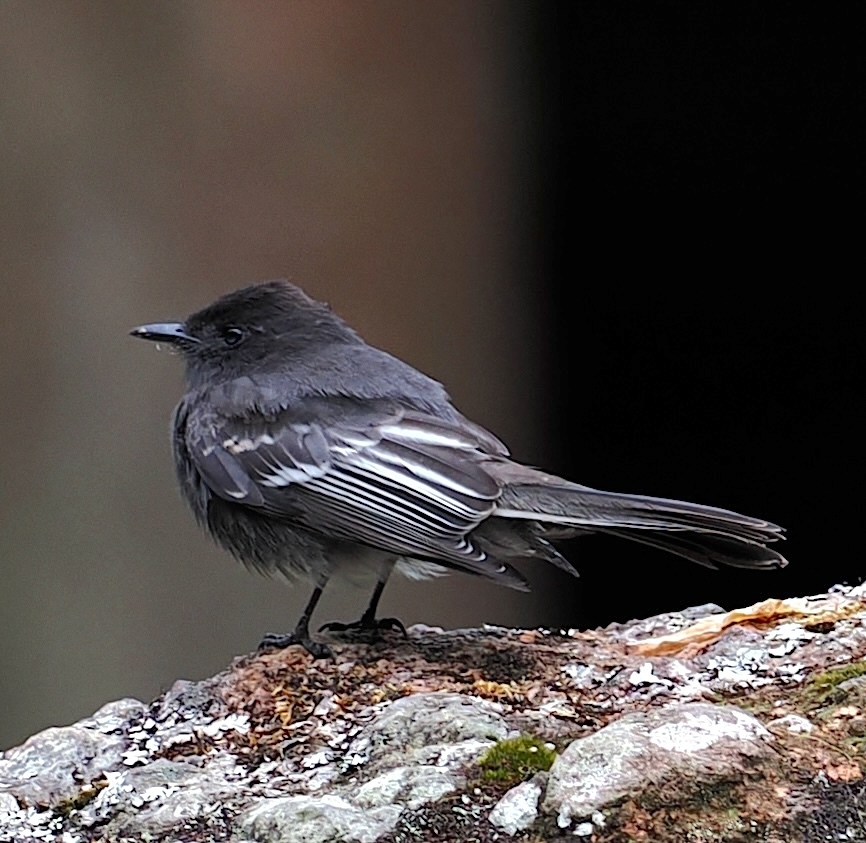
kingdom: Animalia
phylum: Chordata
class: Aves
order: Passeriformes
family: Tyrannidae
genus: Sayornis
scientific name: Sayornis nigricans
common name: Black phoebe
